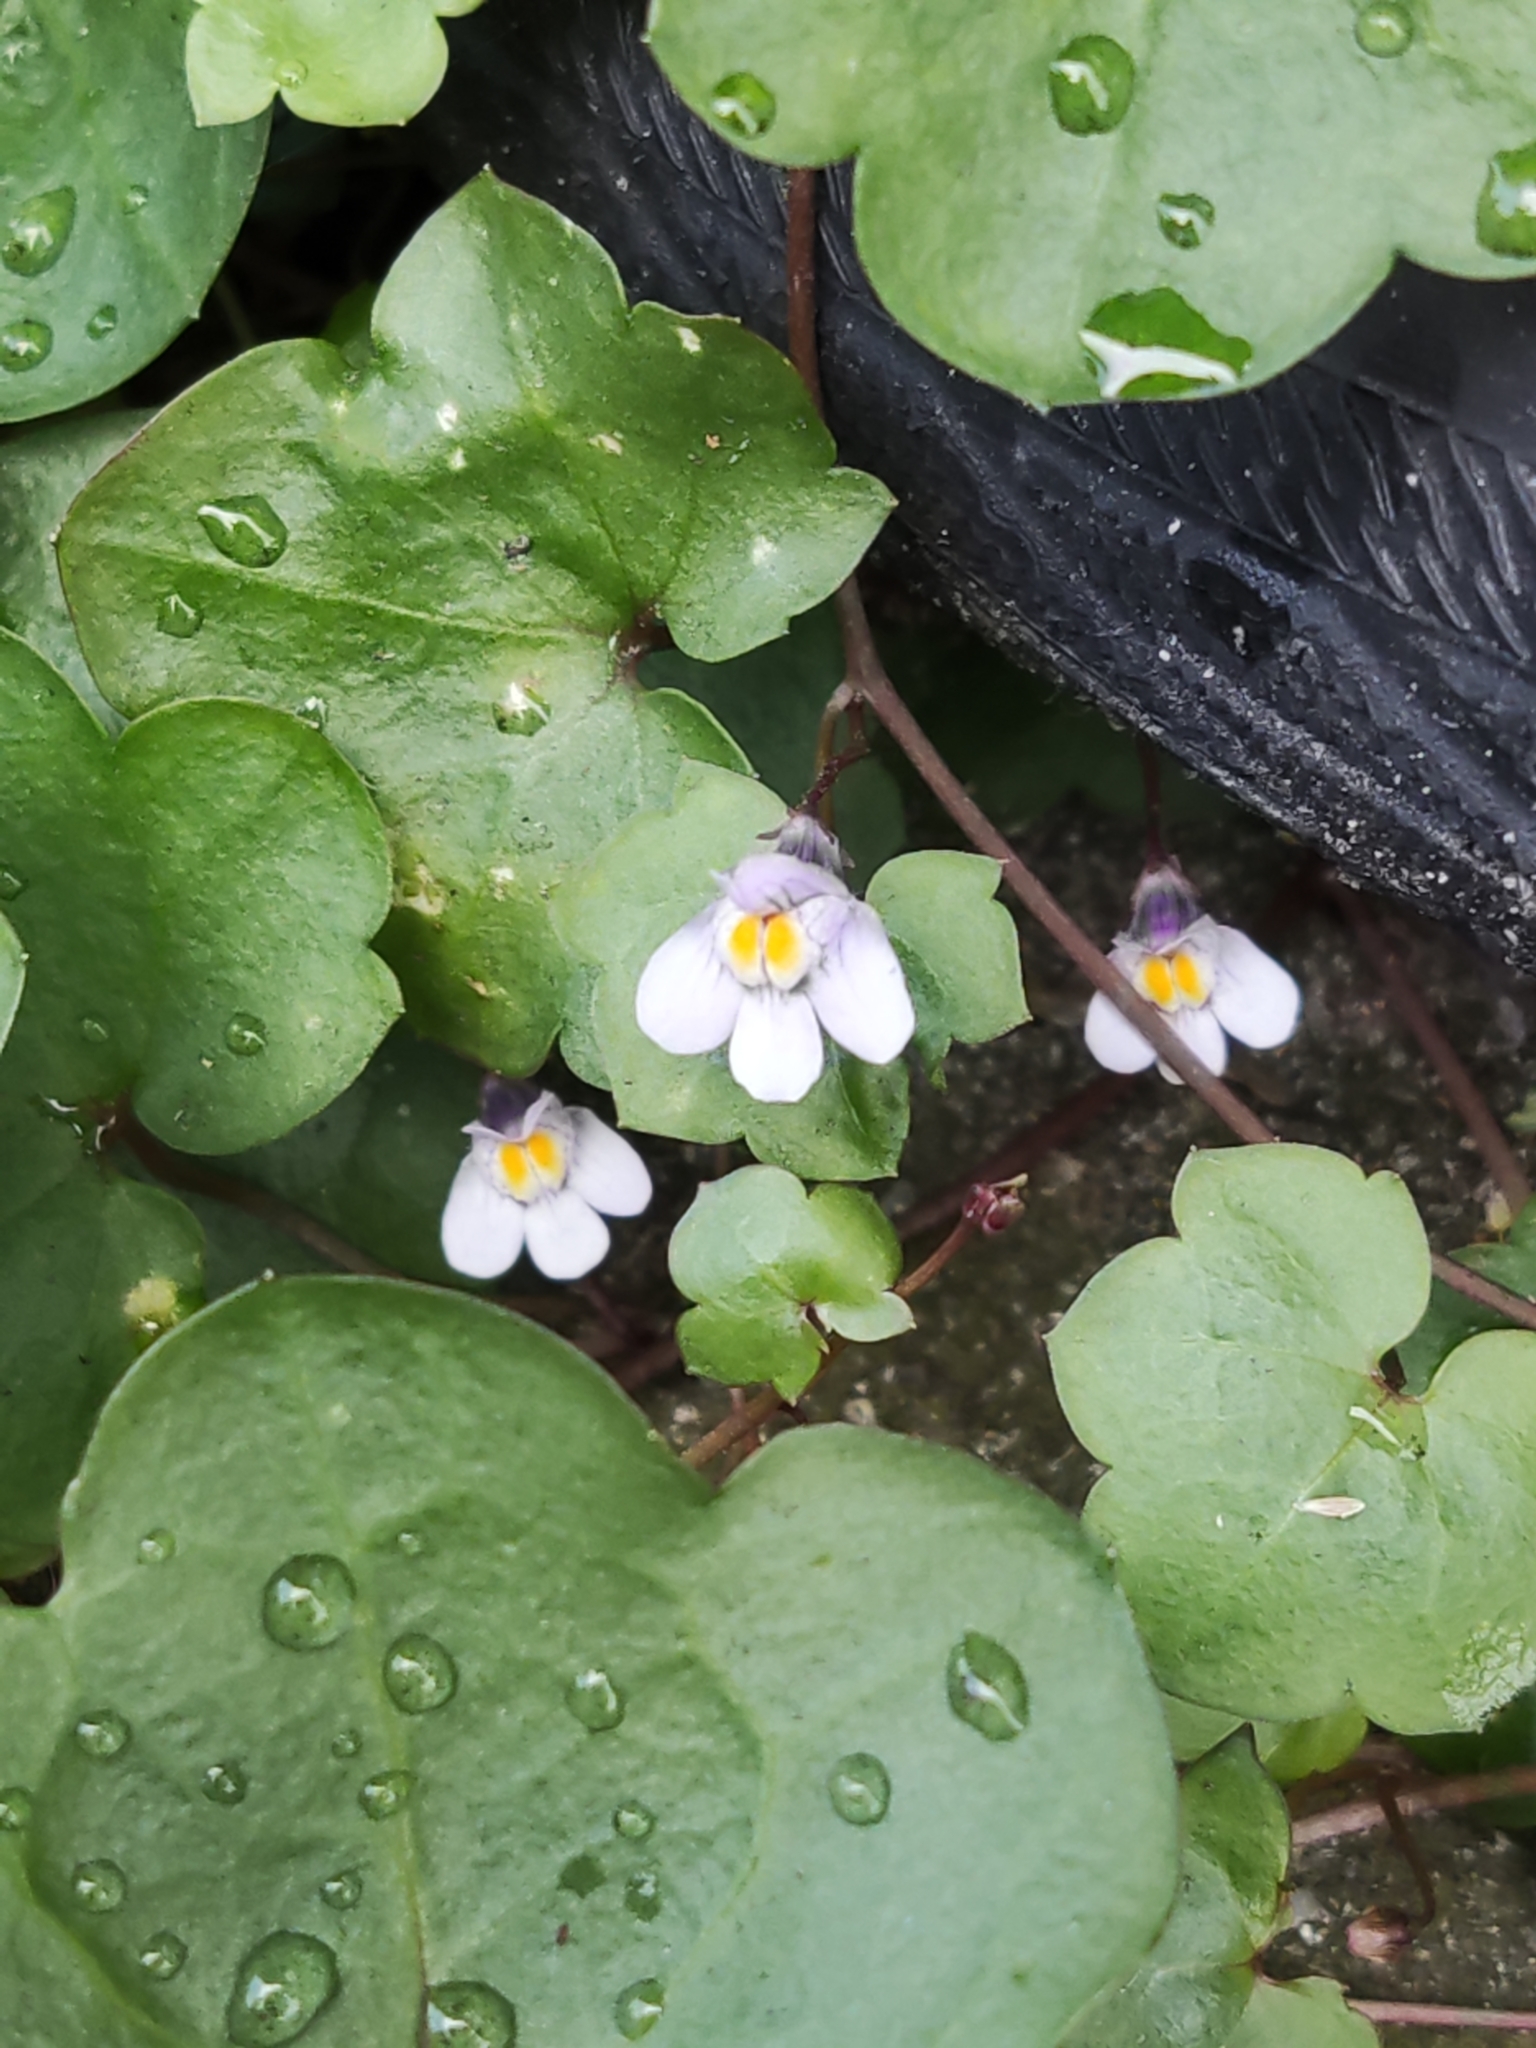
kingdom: Plantae
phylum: Tracheophyta
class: Magnoliopsida
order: Lamiales
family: Plantaginaceae
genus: Cymbalaria
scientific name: Cymbalaria muralis
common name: Ivy-leaved toadflax
